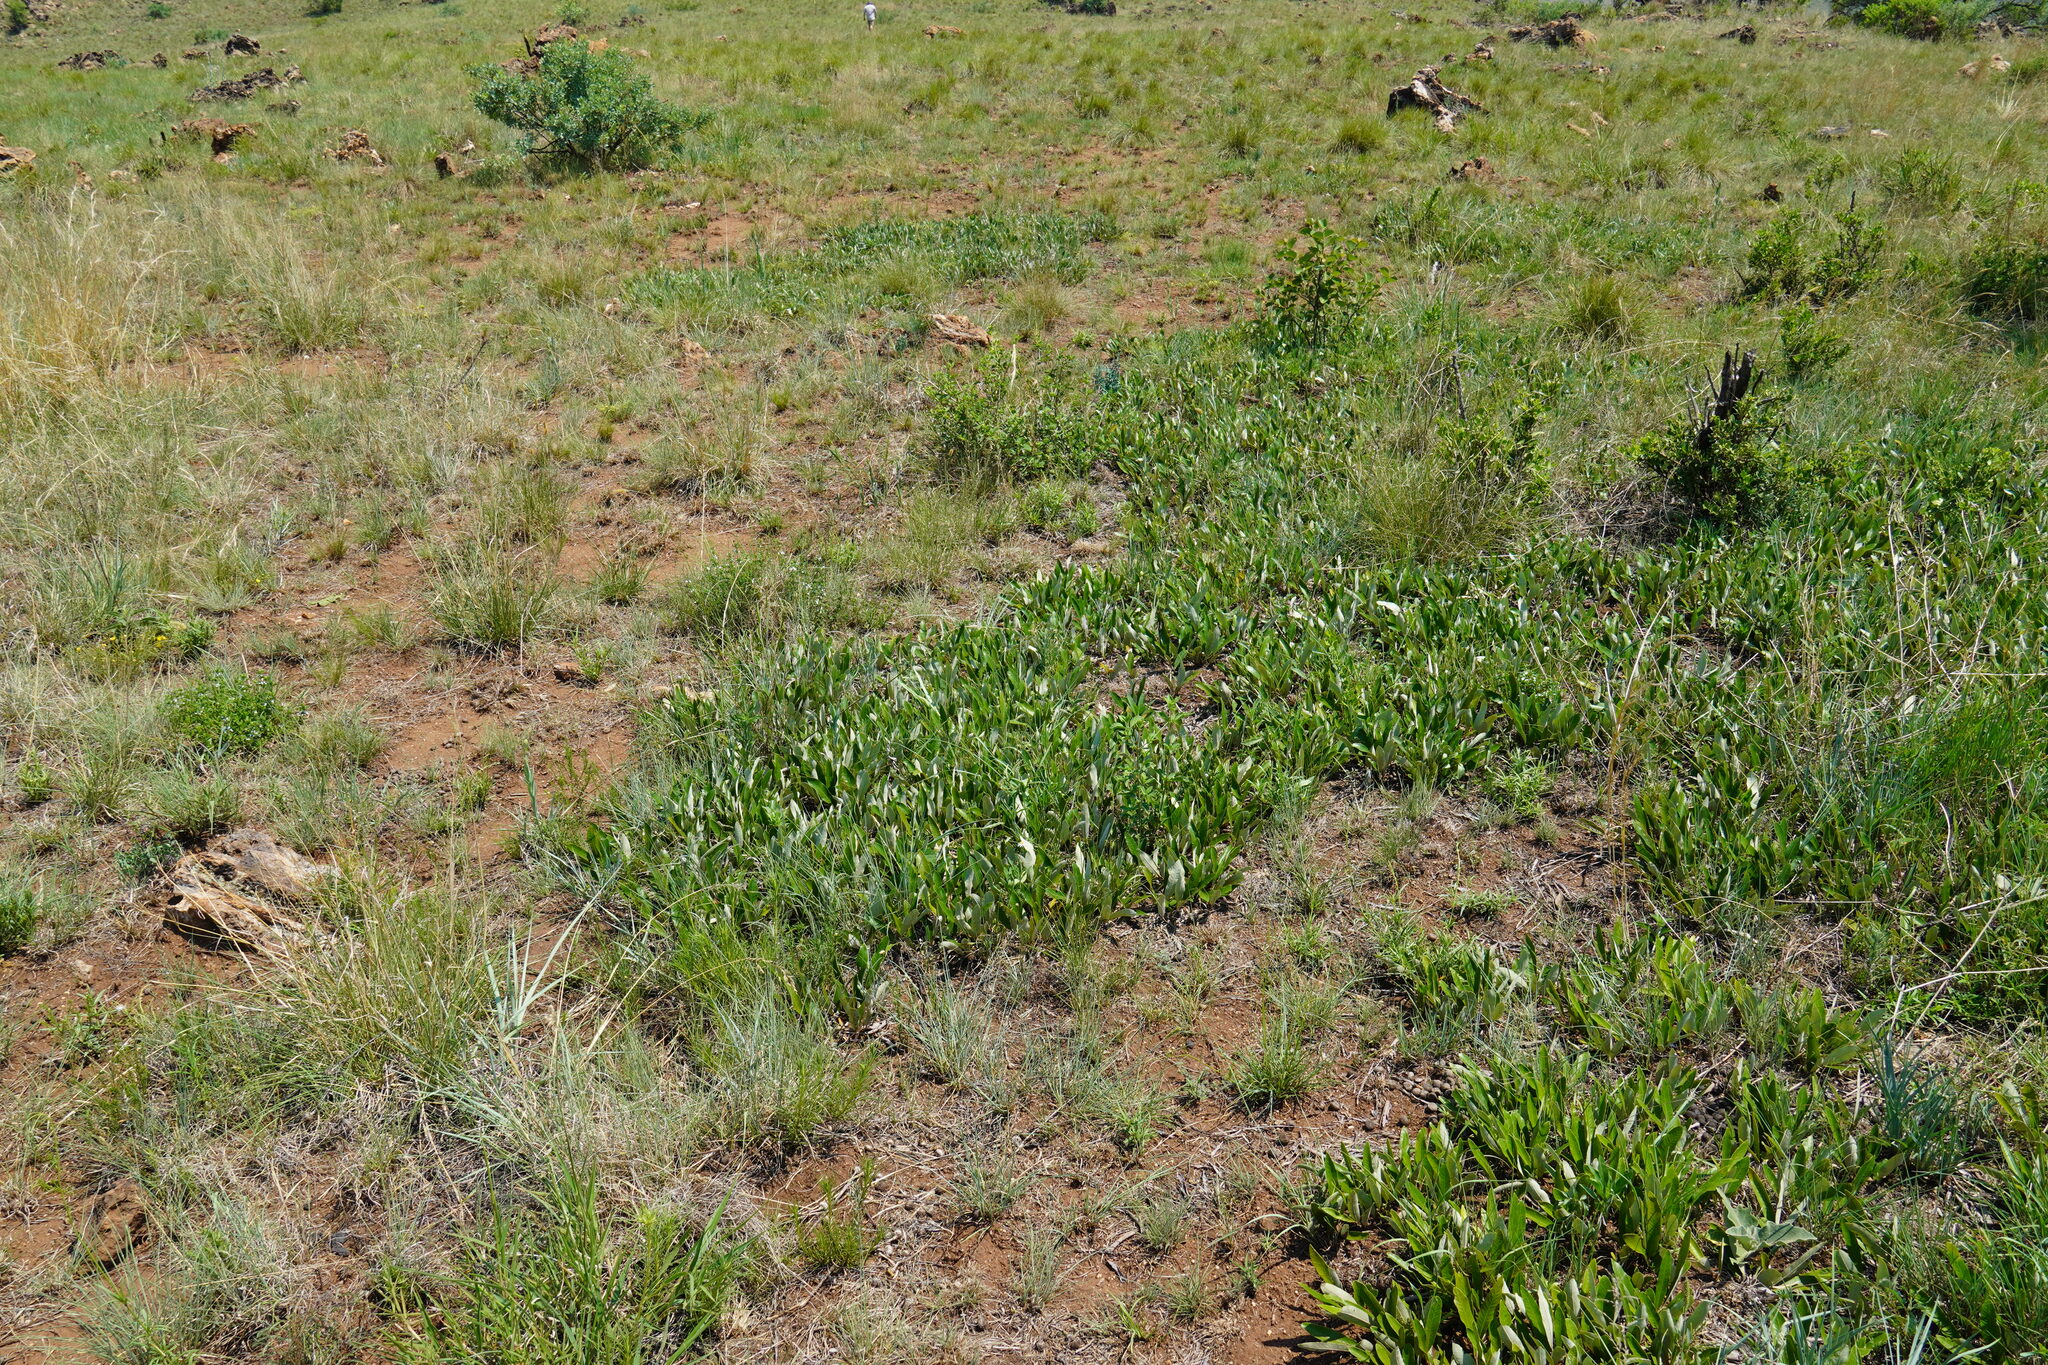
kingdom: Plantae
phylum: Tracheophyta
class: Magnoliopsida
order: Malpighiales
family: Chrysobalanaceae
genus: Parinari
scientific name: Parinari capensis
